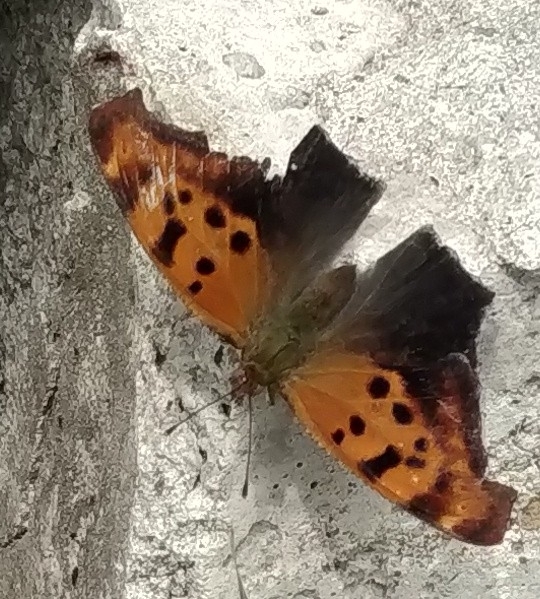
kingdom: Animalia
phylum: Arthropoda
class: Insecta
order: Lepidoptera
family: Nymphalidae
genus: Polygonia
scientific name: Polygonia interrogationis
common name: Question mark
